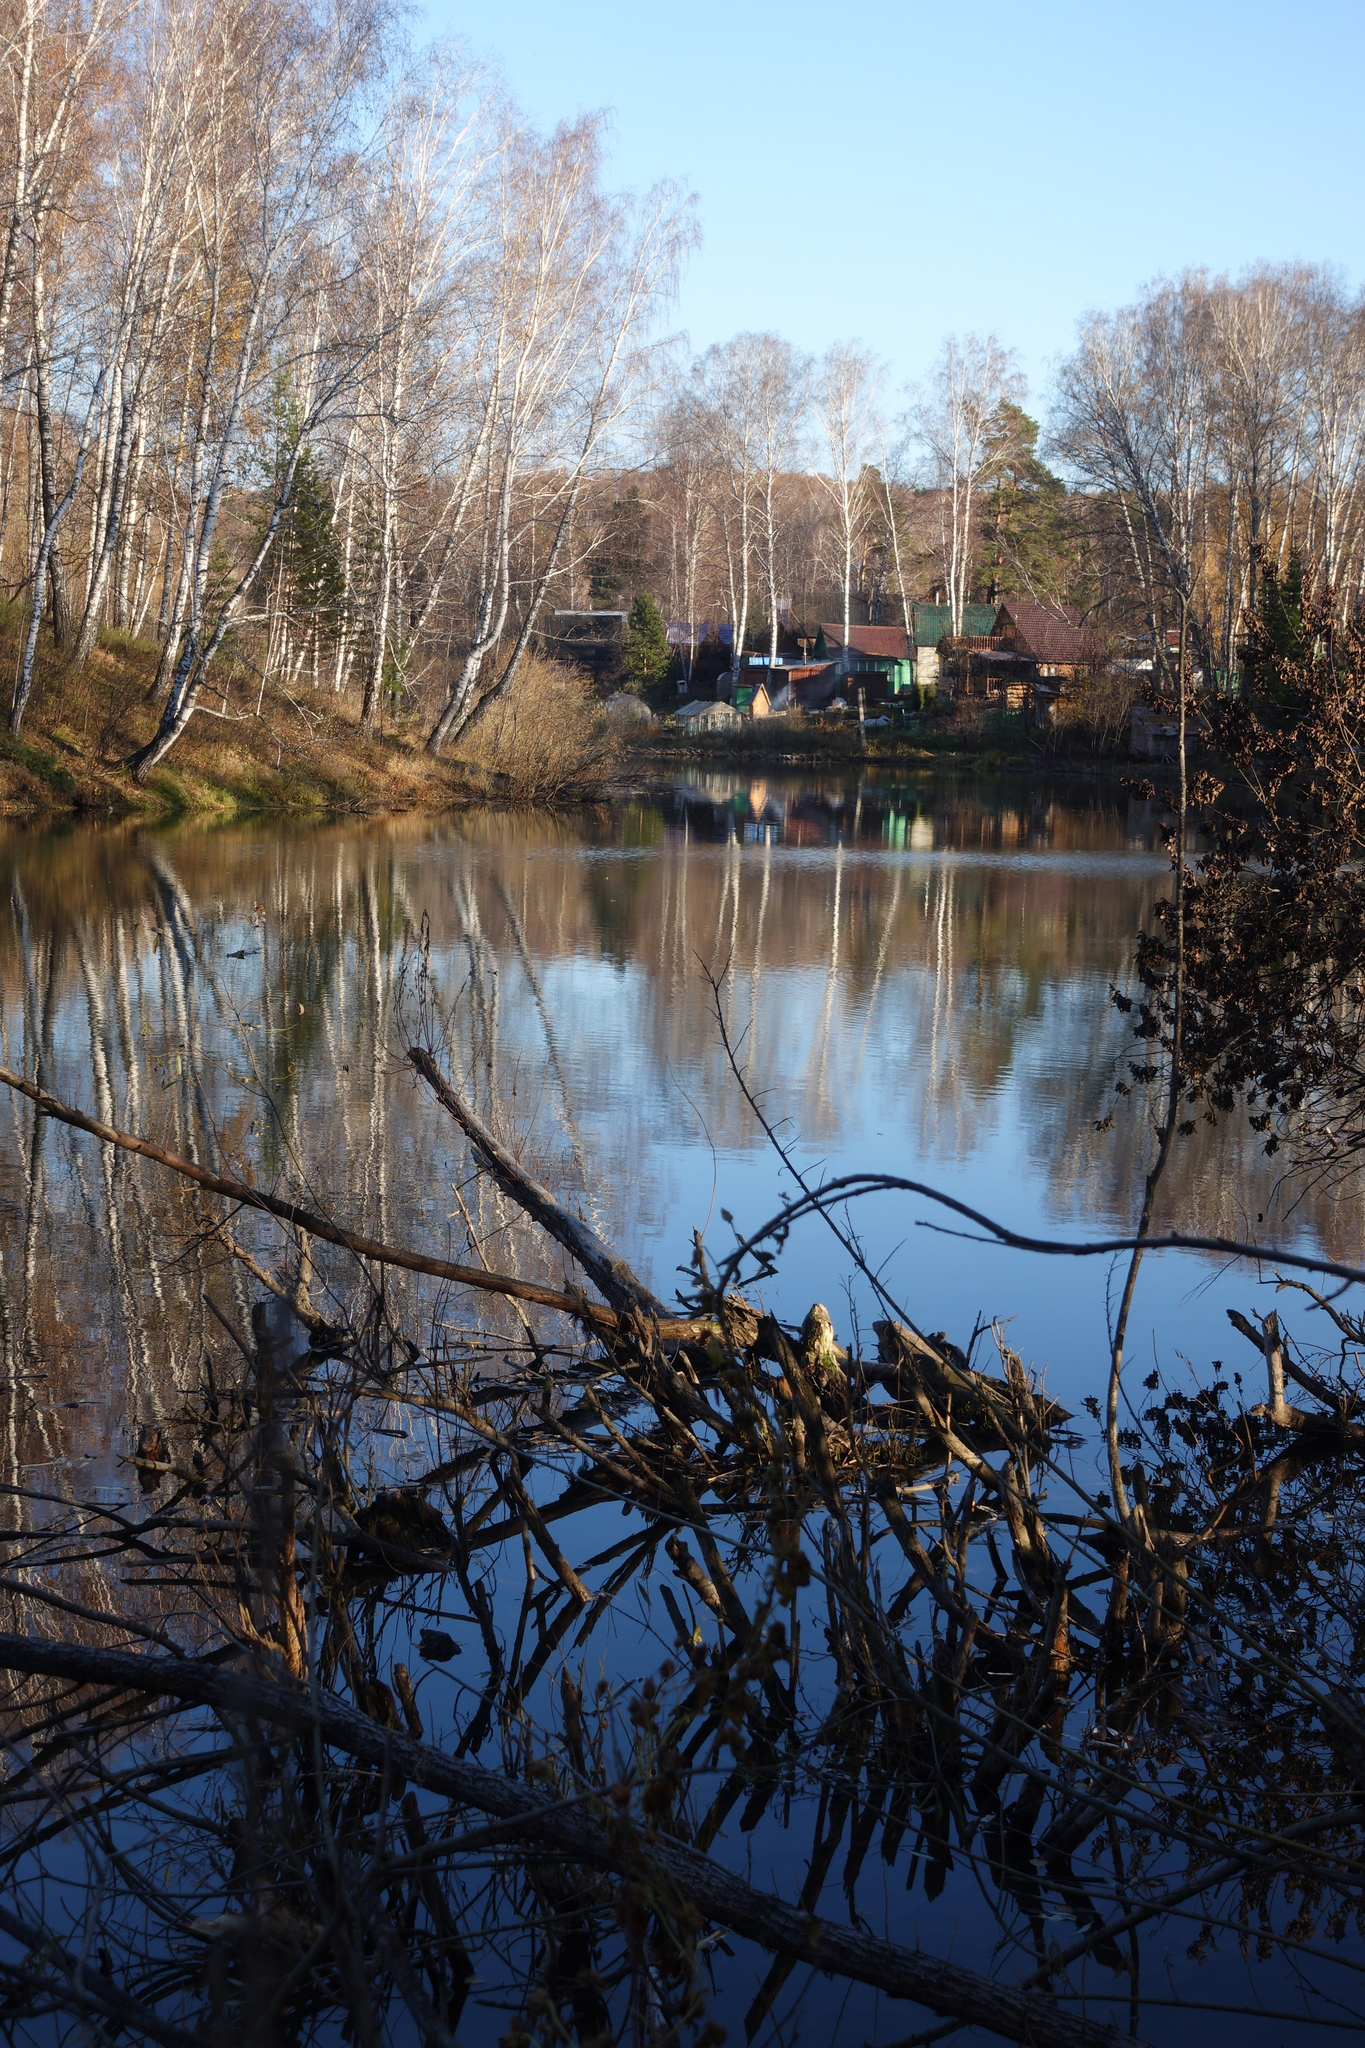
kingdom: Animalia
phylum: Chordata
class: Mammalia
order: Rodentia
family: Castoridae
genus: Castor
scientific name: Castor fiber
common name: Eurasian beaver
